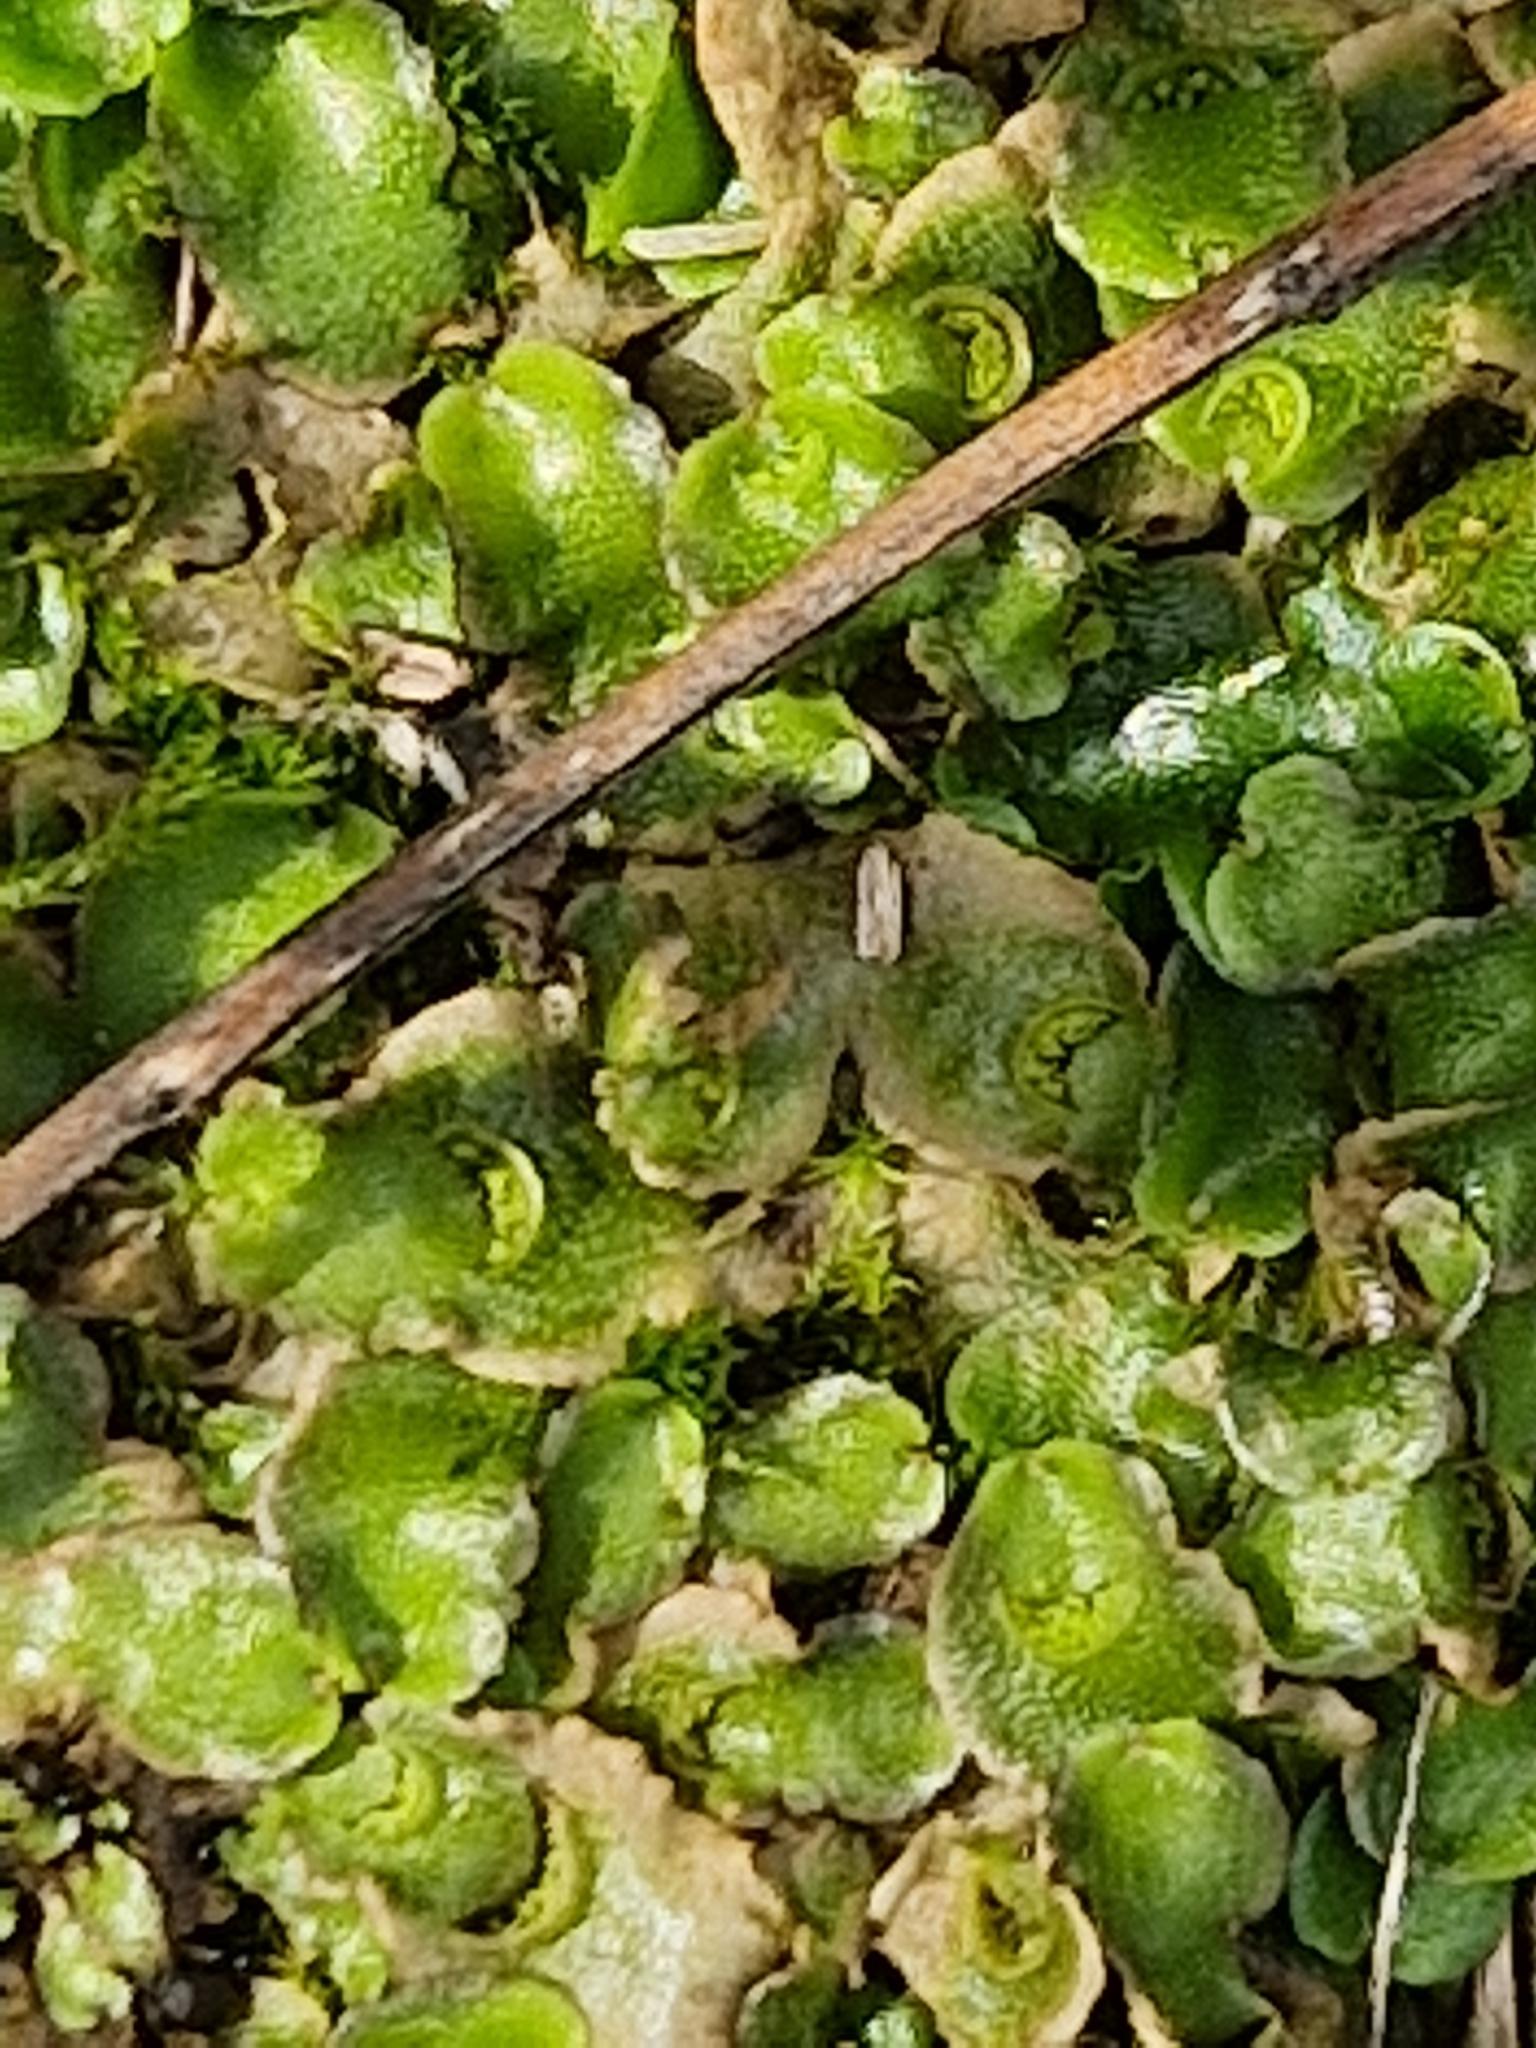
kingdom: Plantae
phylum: Marchantiophyta
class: Marchantiopsida
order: Lunulariales
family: Lunulariaceae
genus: Lunularia
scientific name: Lunularia cruciata
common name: Crescent-cup liverwort
